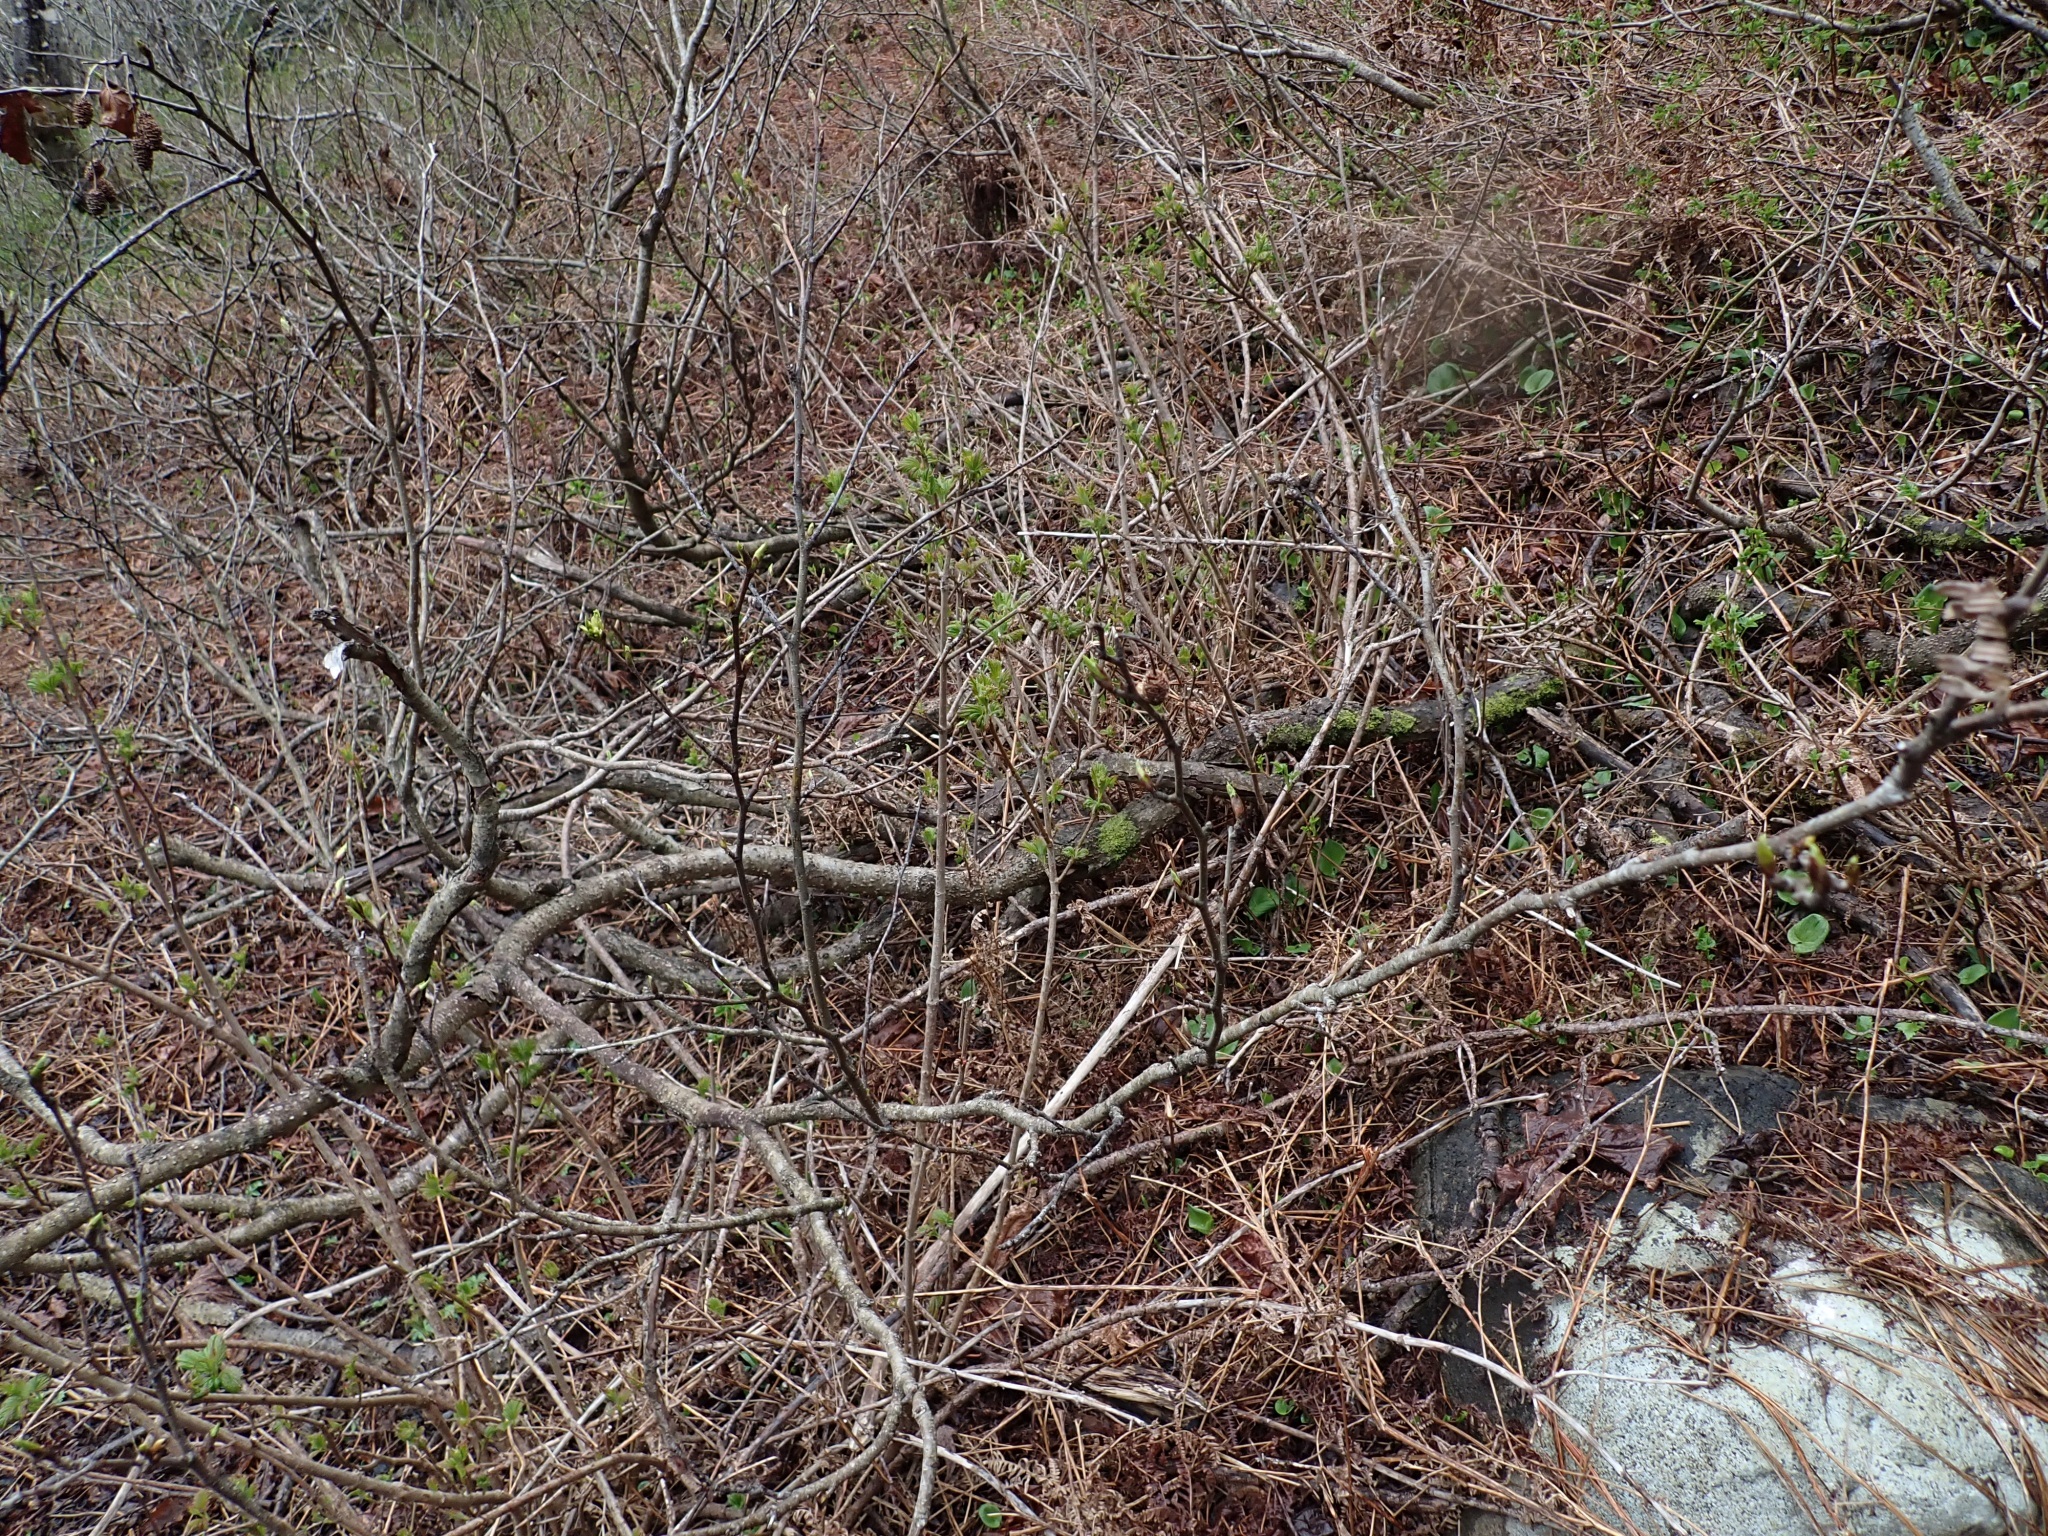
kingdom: Plantae
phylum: Tracheophyta
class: Magnoliopsida
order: Fagales
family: Betulaceae
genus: Alnus
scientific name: Alnus rubra
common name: Red alder
